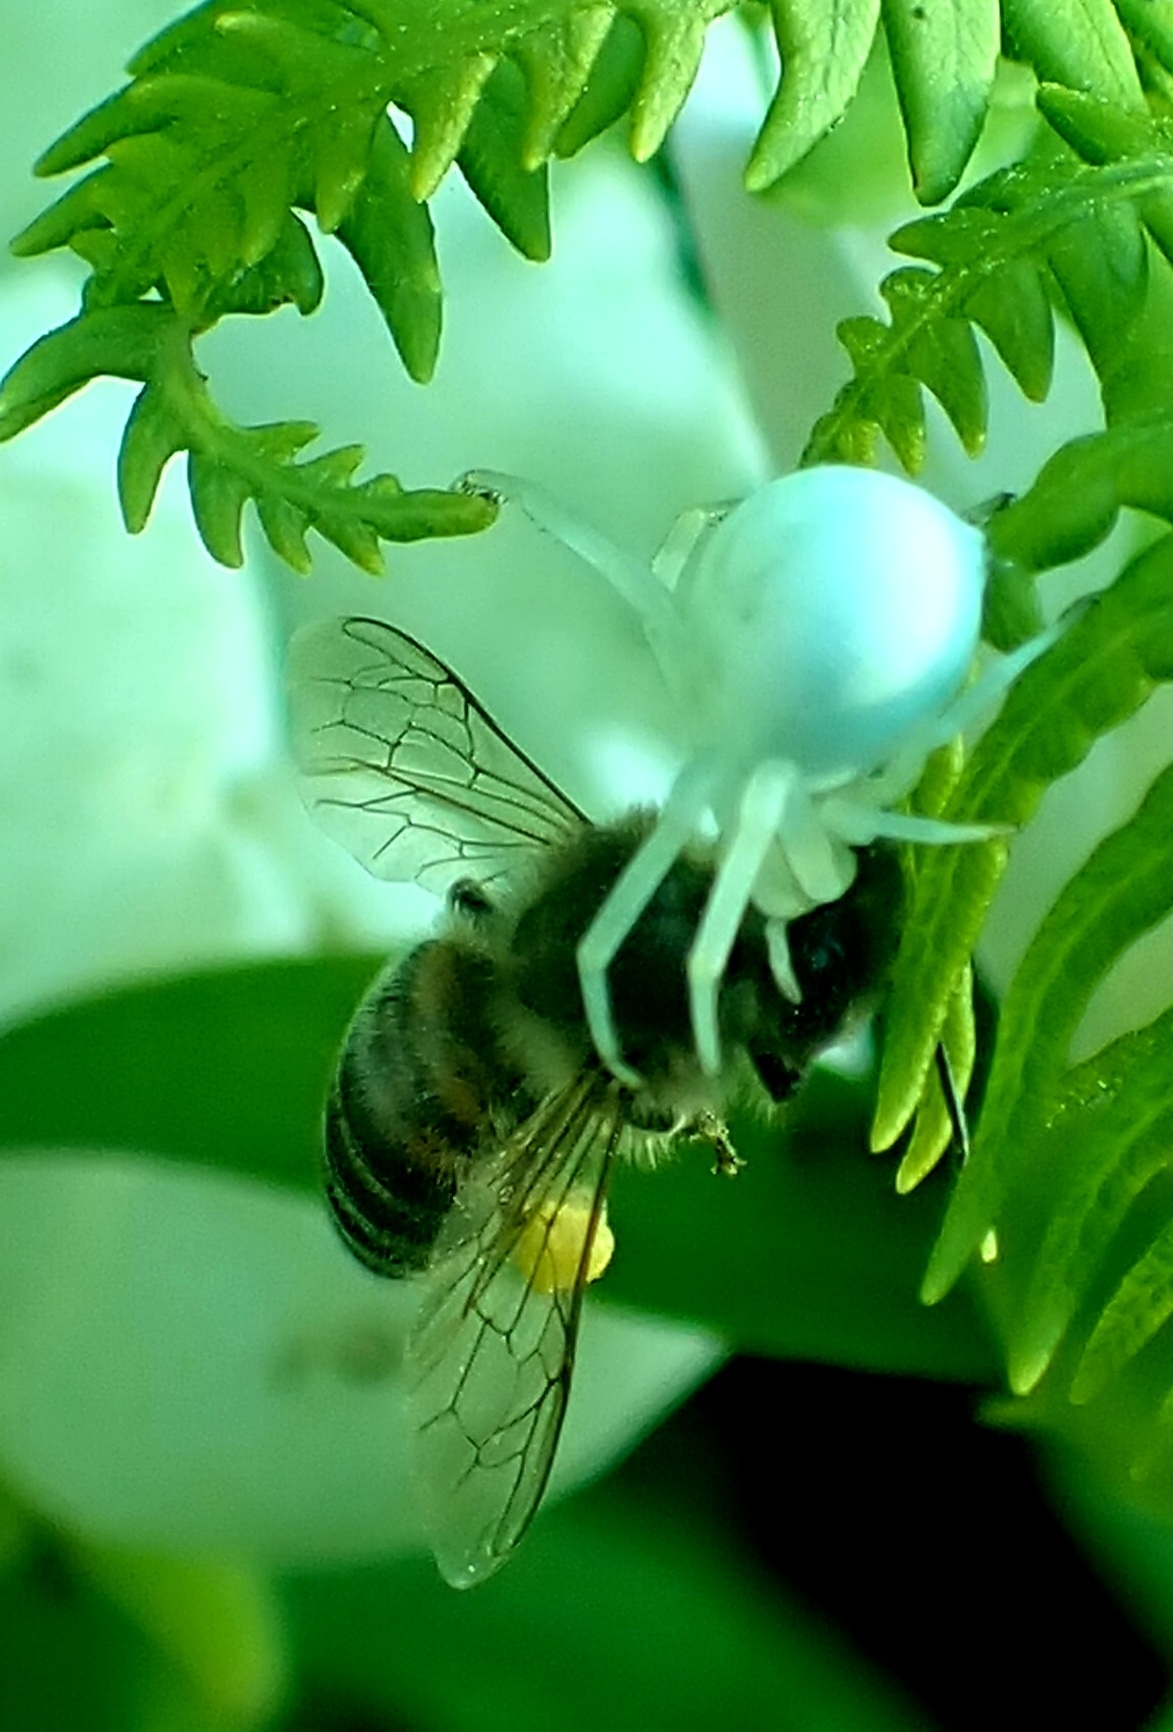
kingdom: Animalia
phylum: Arthropoda
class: Arachnida
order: Araneae
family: Thomisidae
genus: Misumena
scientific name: Misumena vatia
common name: Goldenrod crab spider
